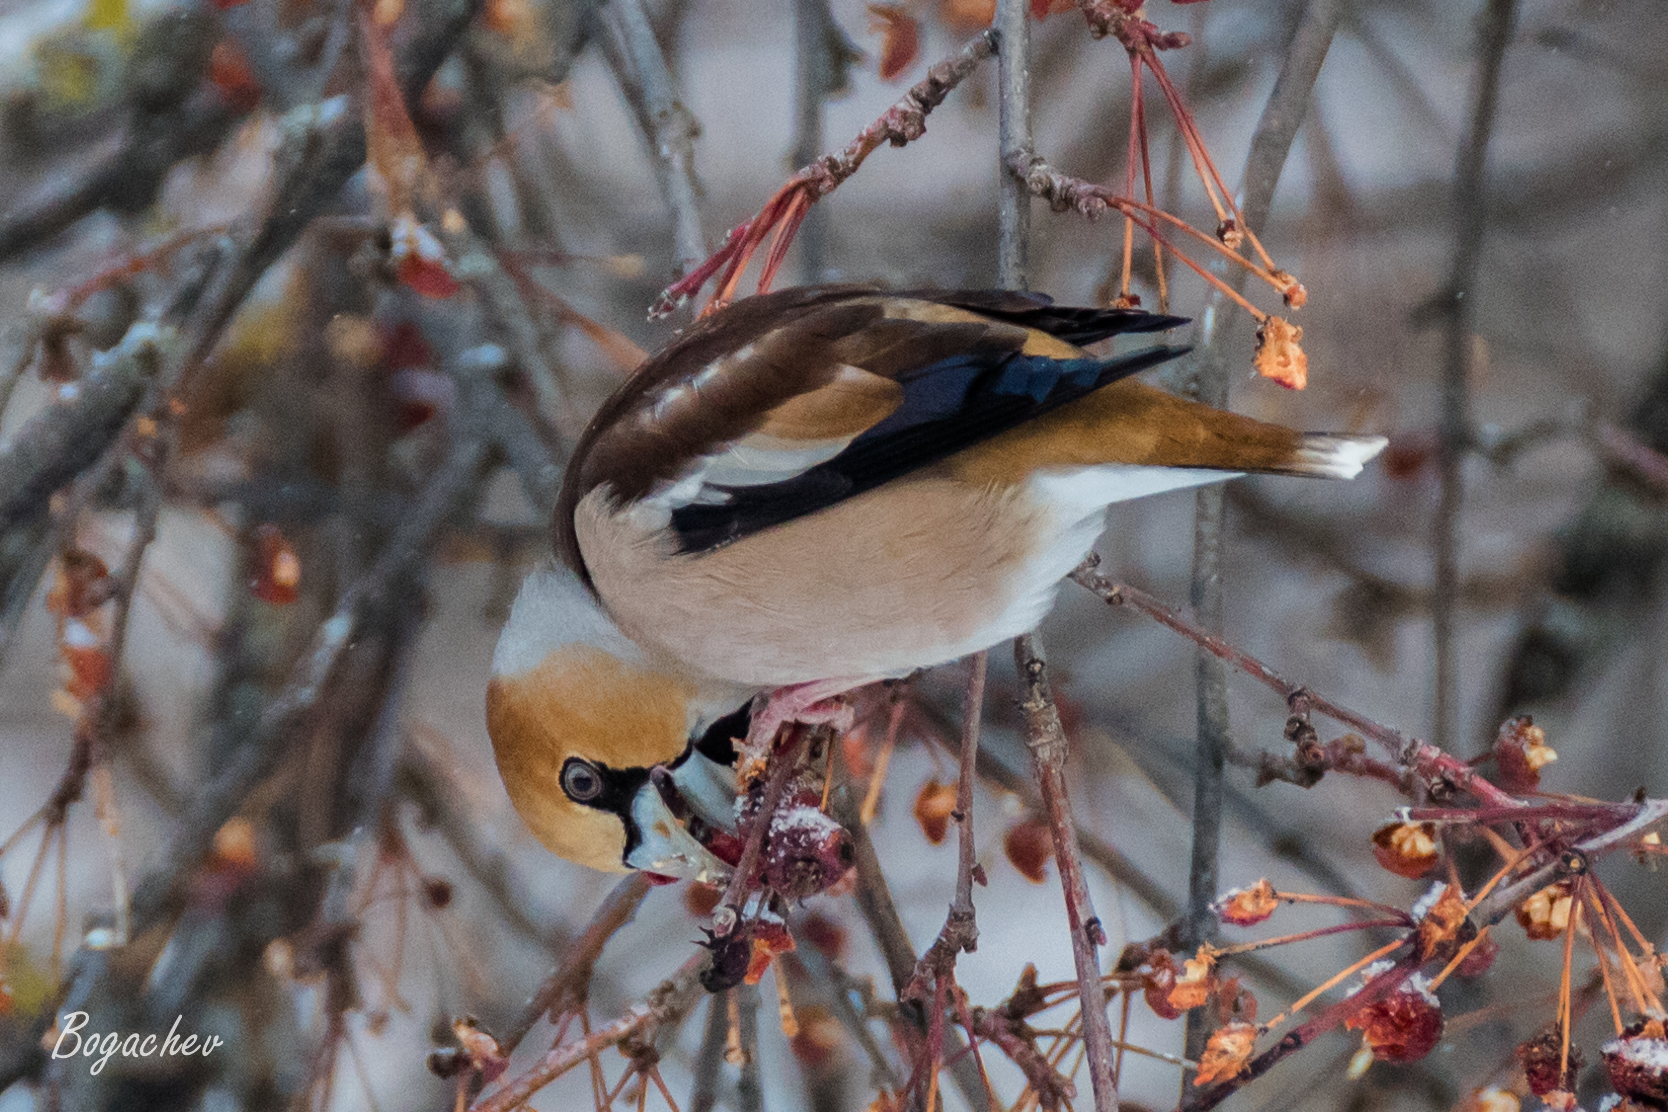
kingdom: Animalia
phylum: Chordata
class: Aves
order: Passeriformes
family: Fringillidae
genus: Coccothraustes
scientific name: Coccothraustes coccothraustes
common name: Hawfinch
